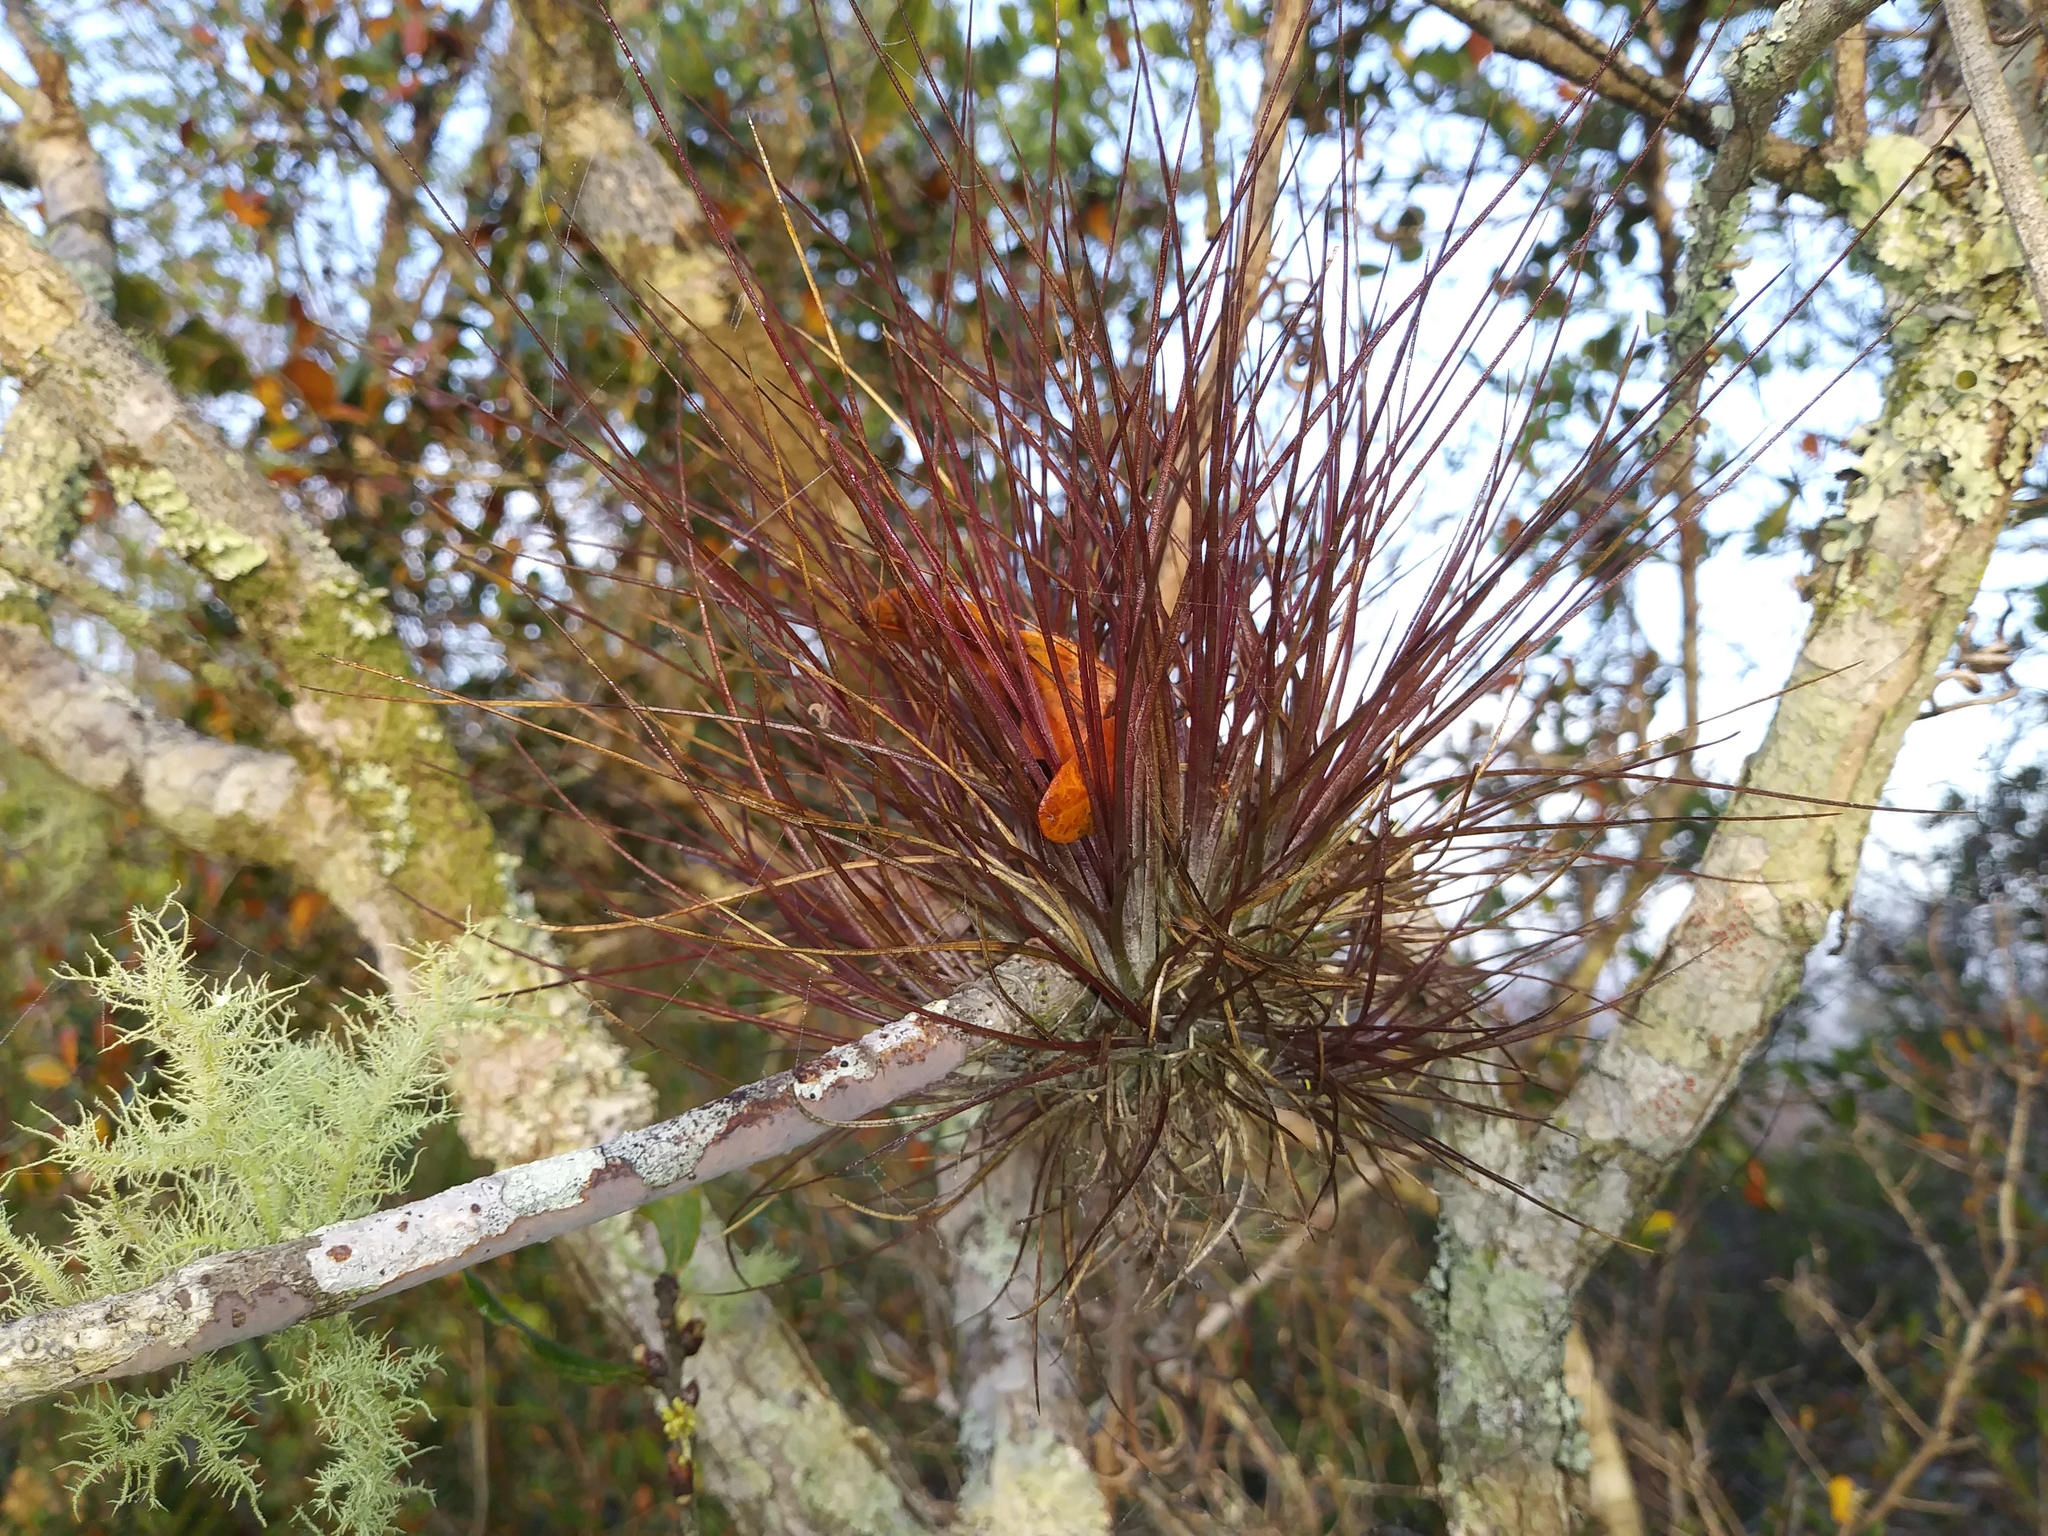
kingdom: Plantae
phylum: Tracheophyta
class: Liliopsida
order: Poales
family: Bromeliaceae
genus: Tillandsia
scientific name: Tillandsia setacea
